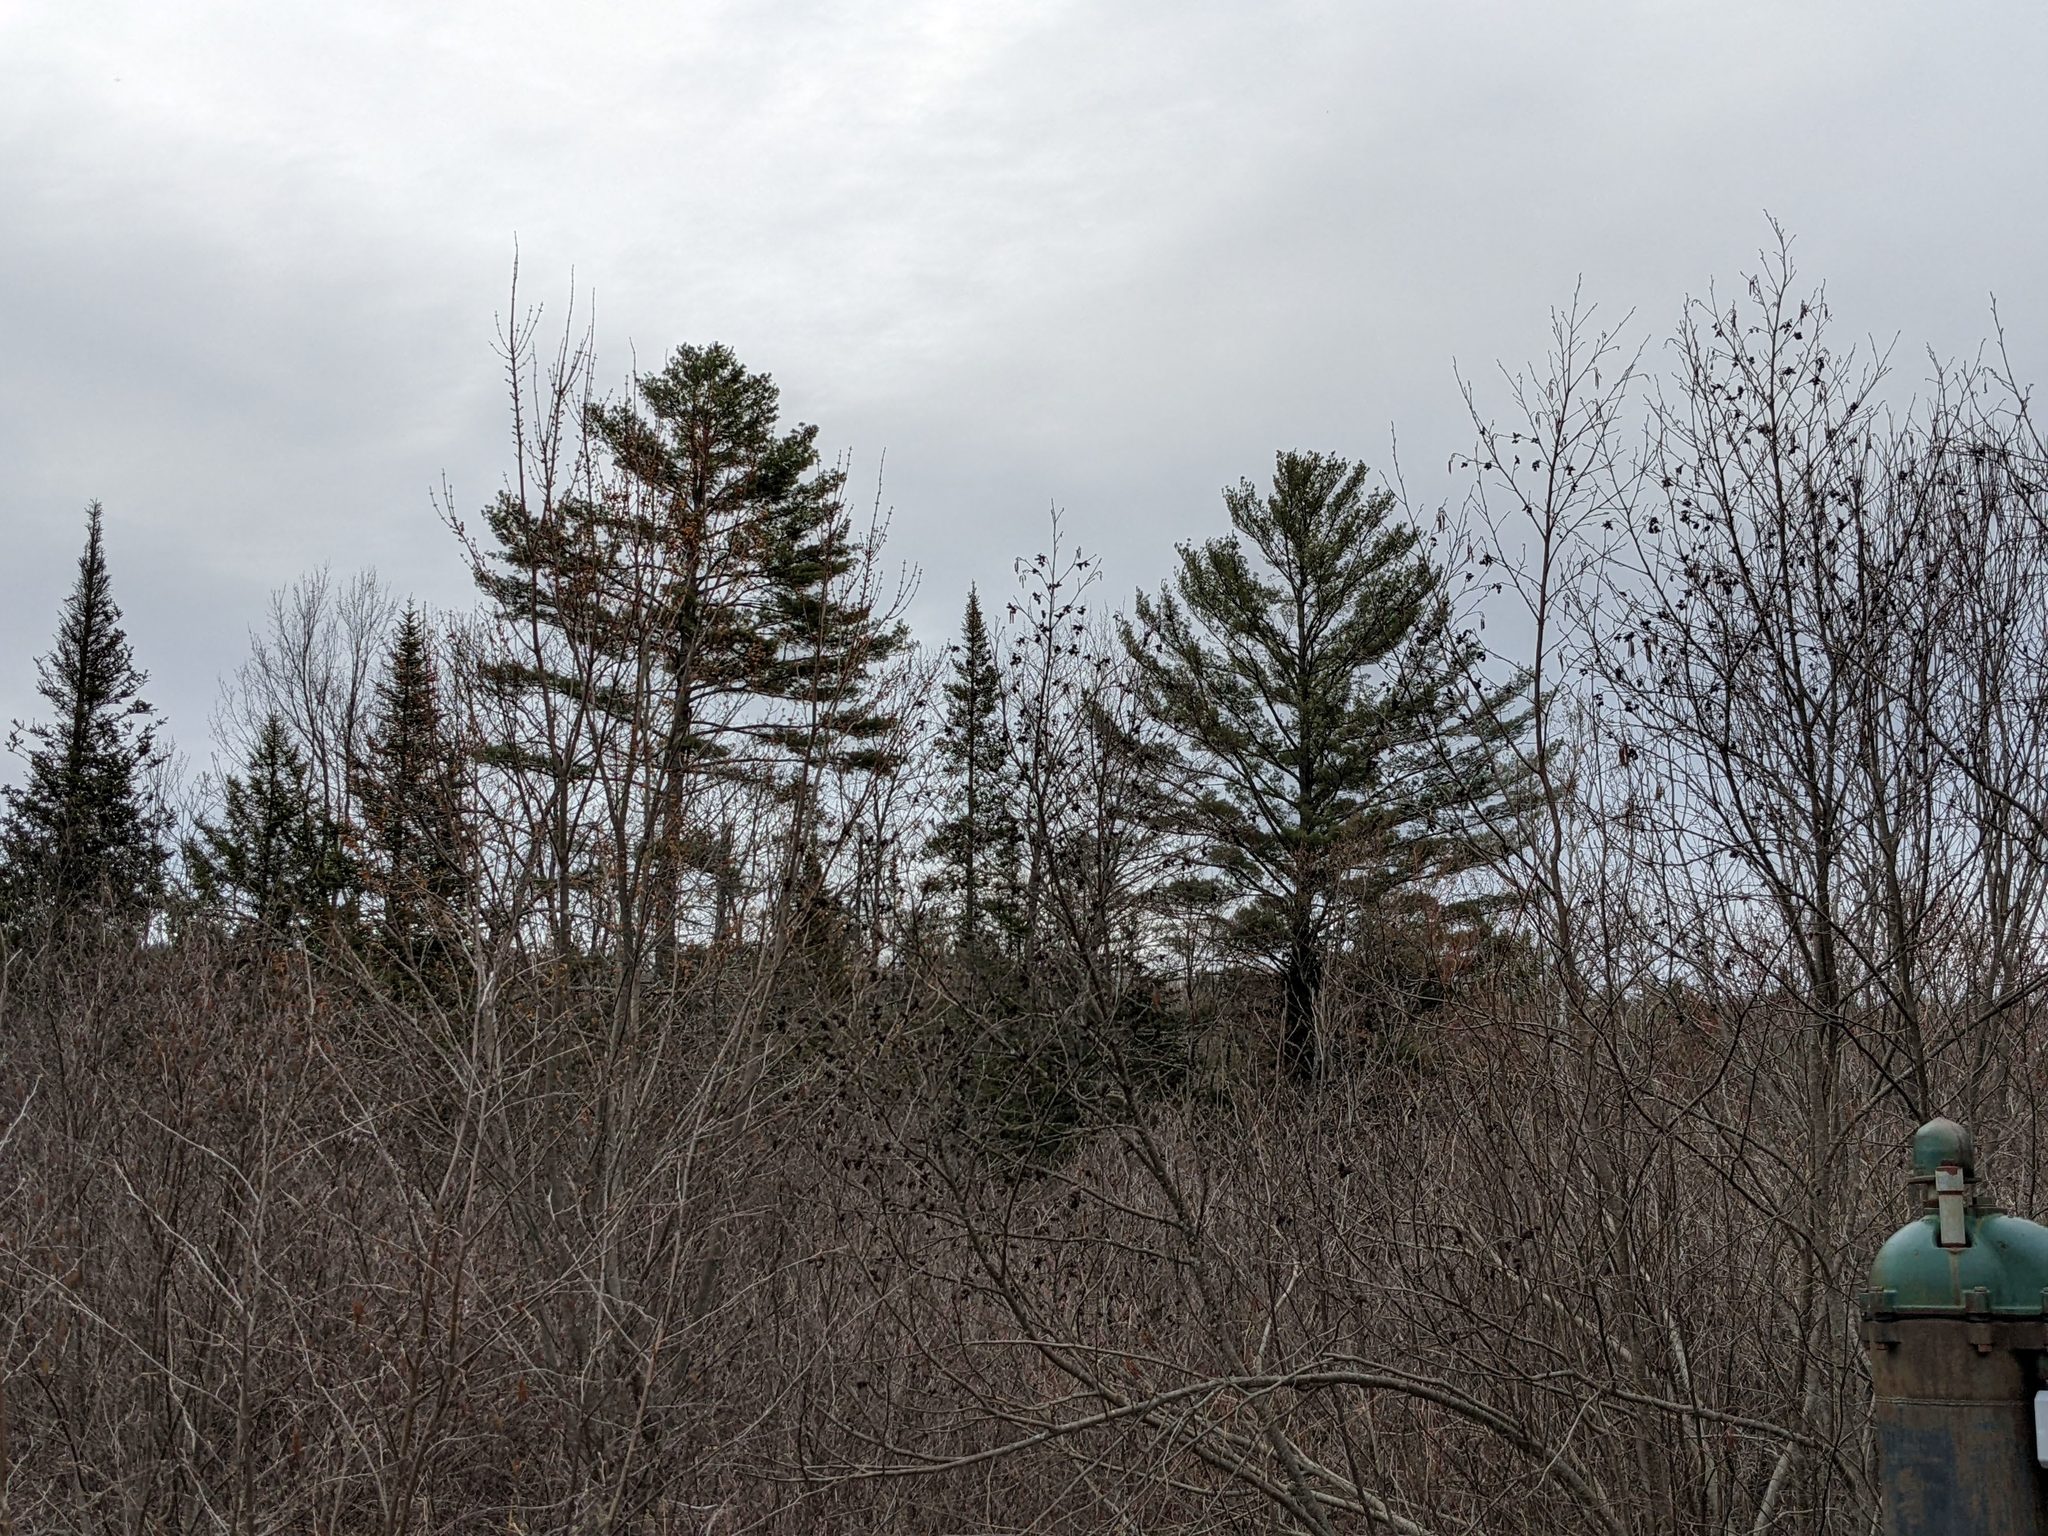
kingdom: Plantae
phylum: Tracheophyta
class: Pinopsida
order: Pinales
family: Pinaceae
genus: Pinus
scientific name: Pinus strobus
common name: Weymouth pine
